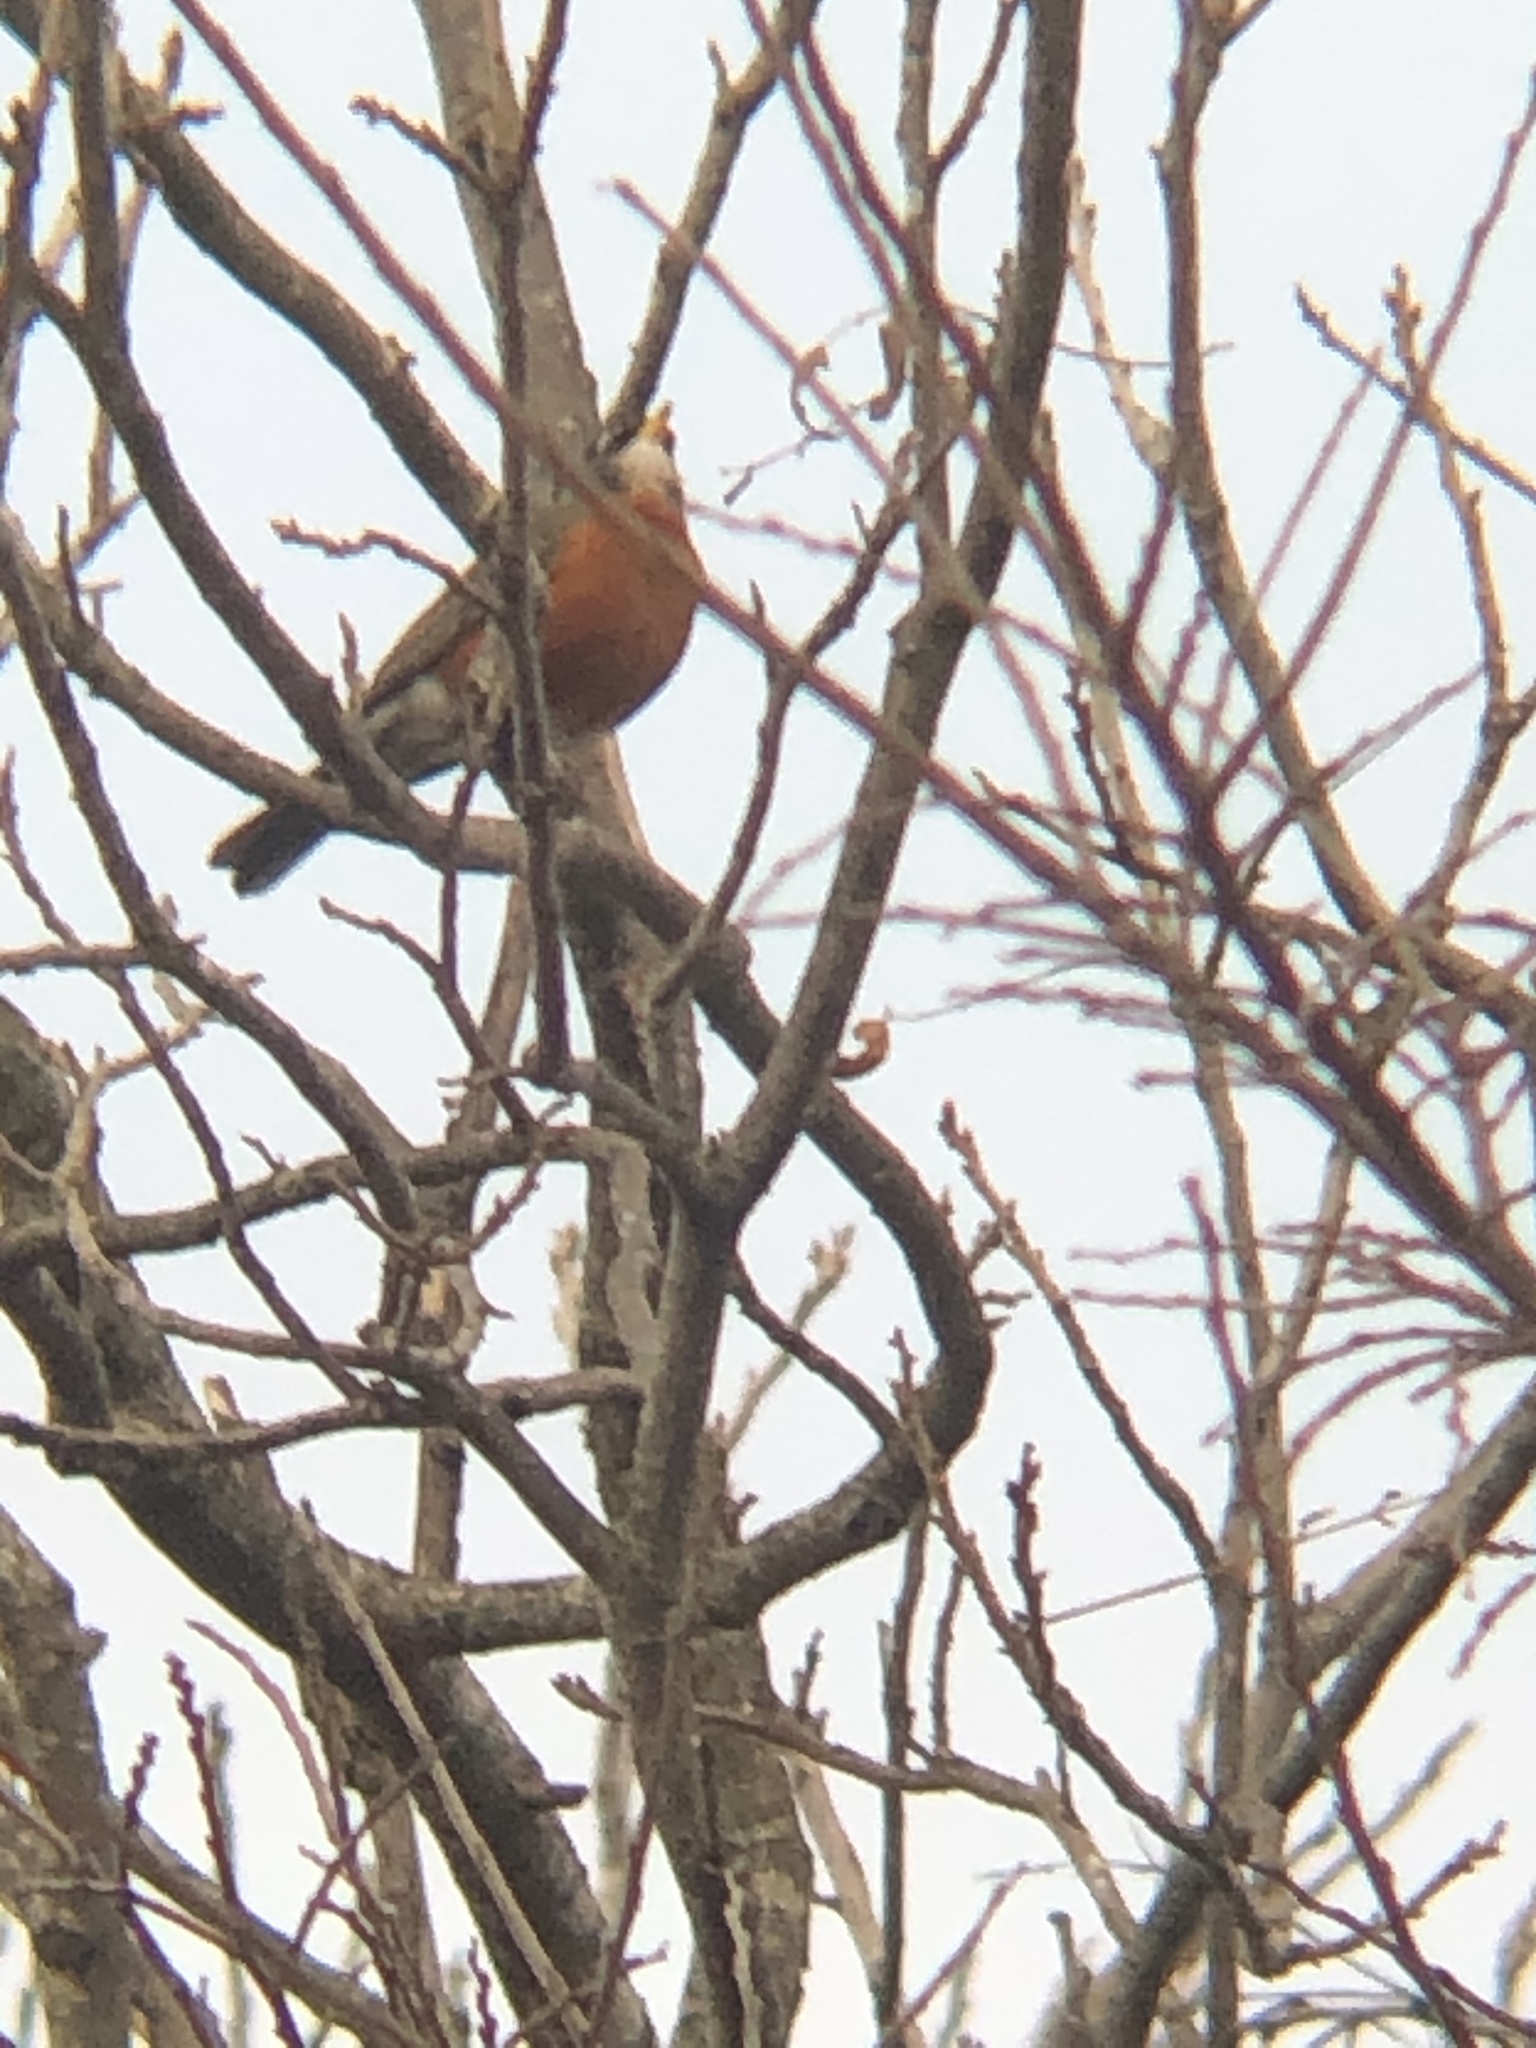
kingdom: Animalia
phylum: Chordata
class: Aves
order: Passeriformes
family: Turdidae
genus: Turdus
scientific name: Turdus migratorius
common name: American robin
